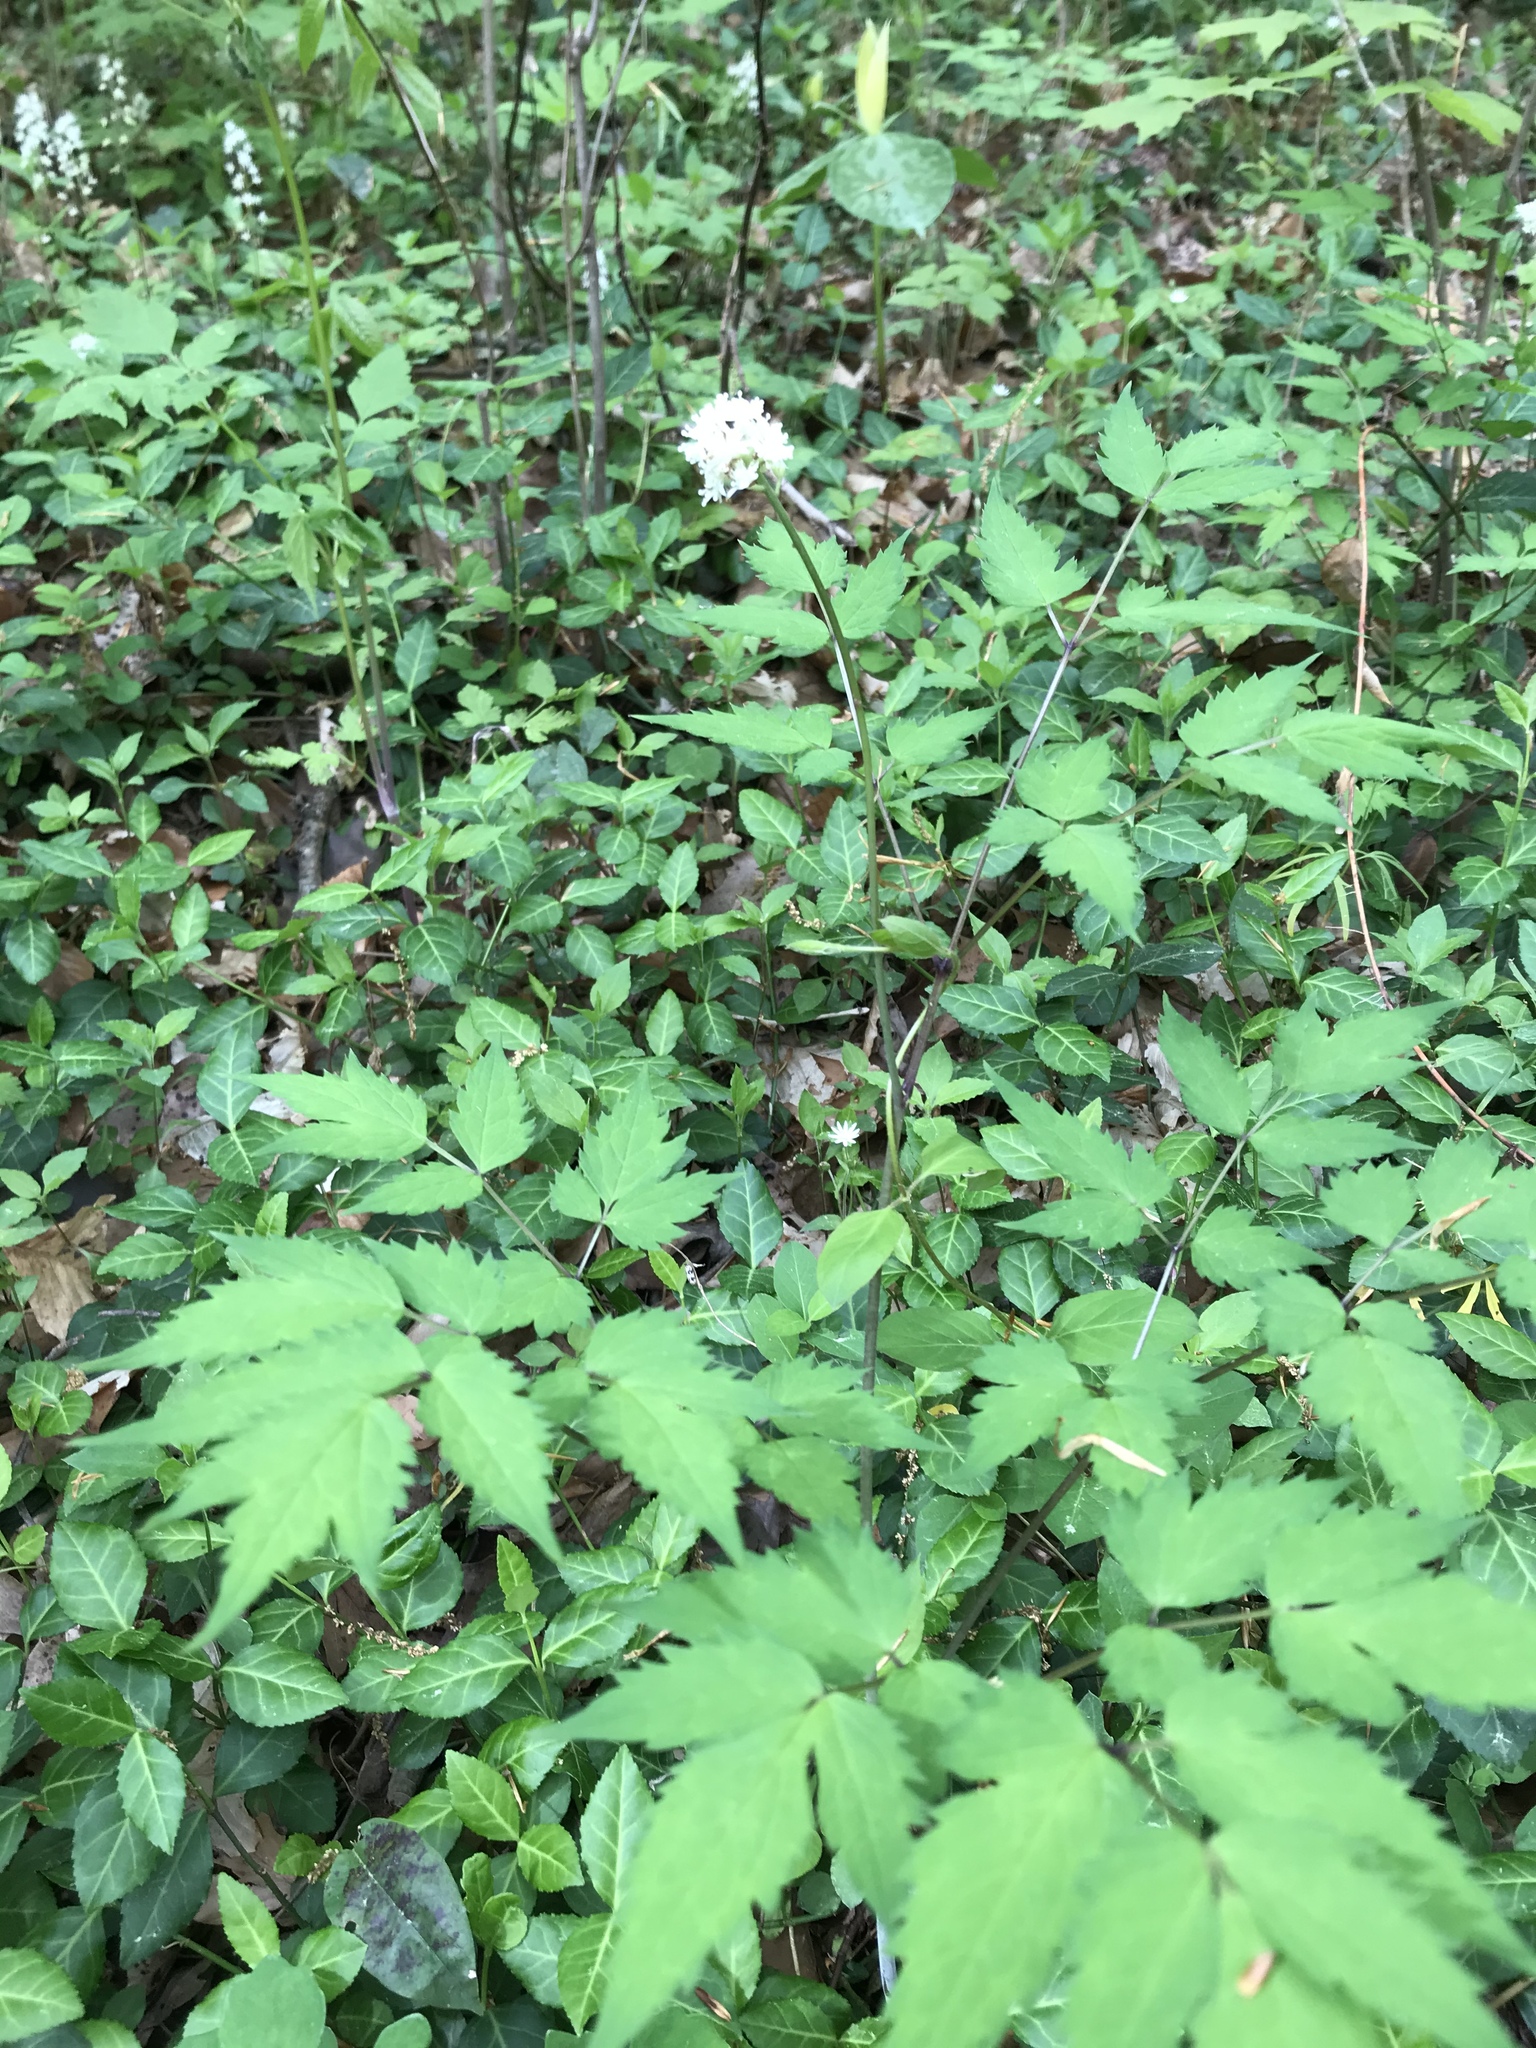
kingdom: Plantae
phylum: Tracheophyta
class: Magnoliopsida
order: Ranunculales
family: Ranunculaceae
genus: Actaea
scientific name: Actaea pachypoda
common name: Doll's-eyes
